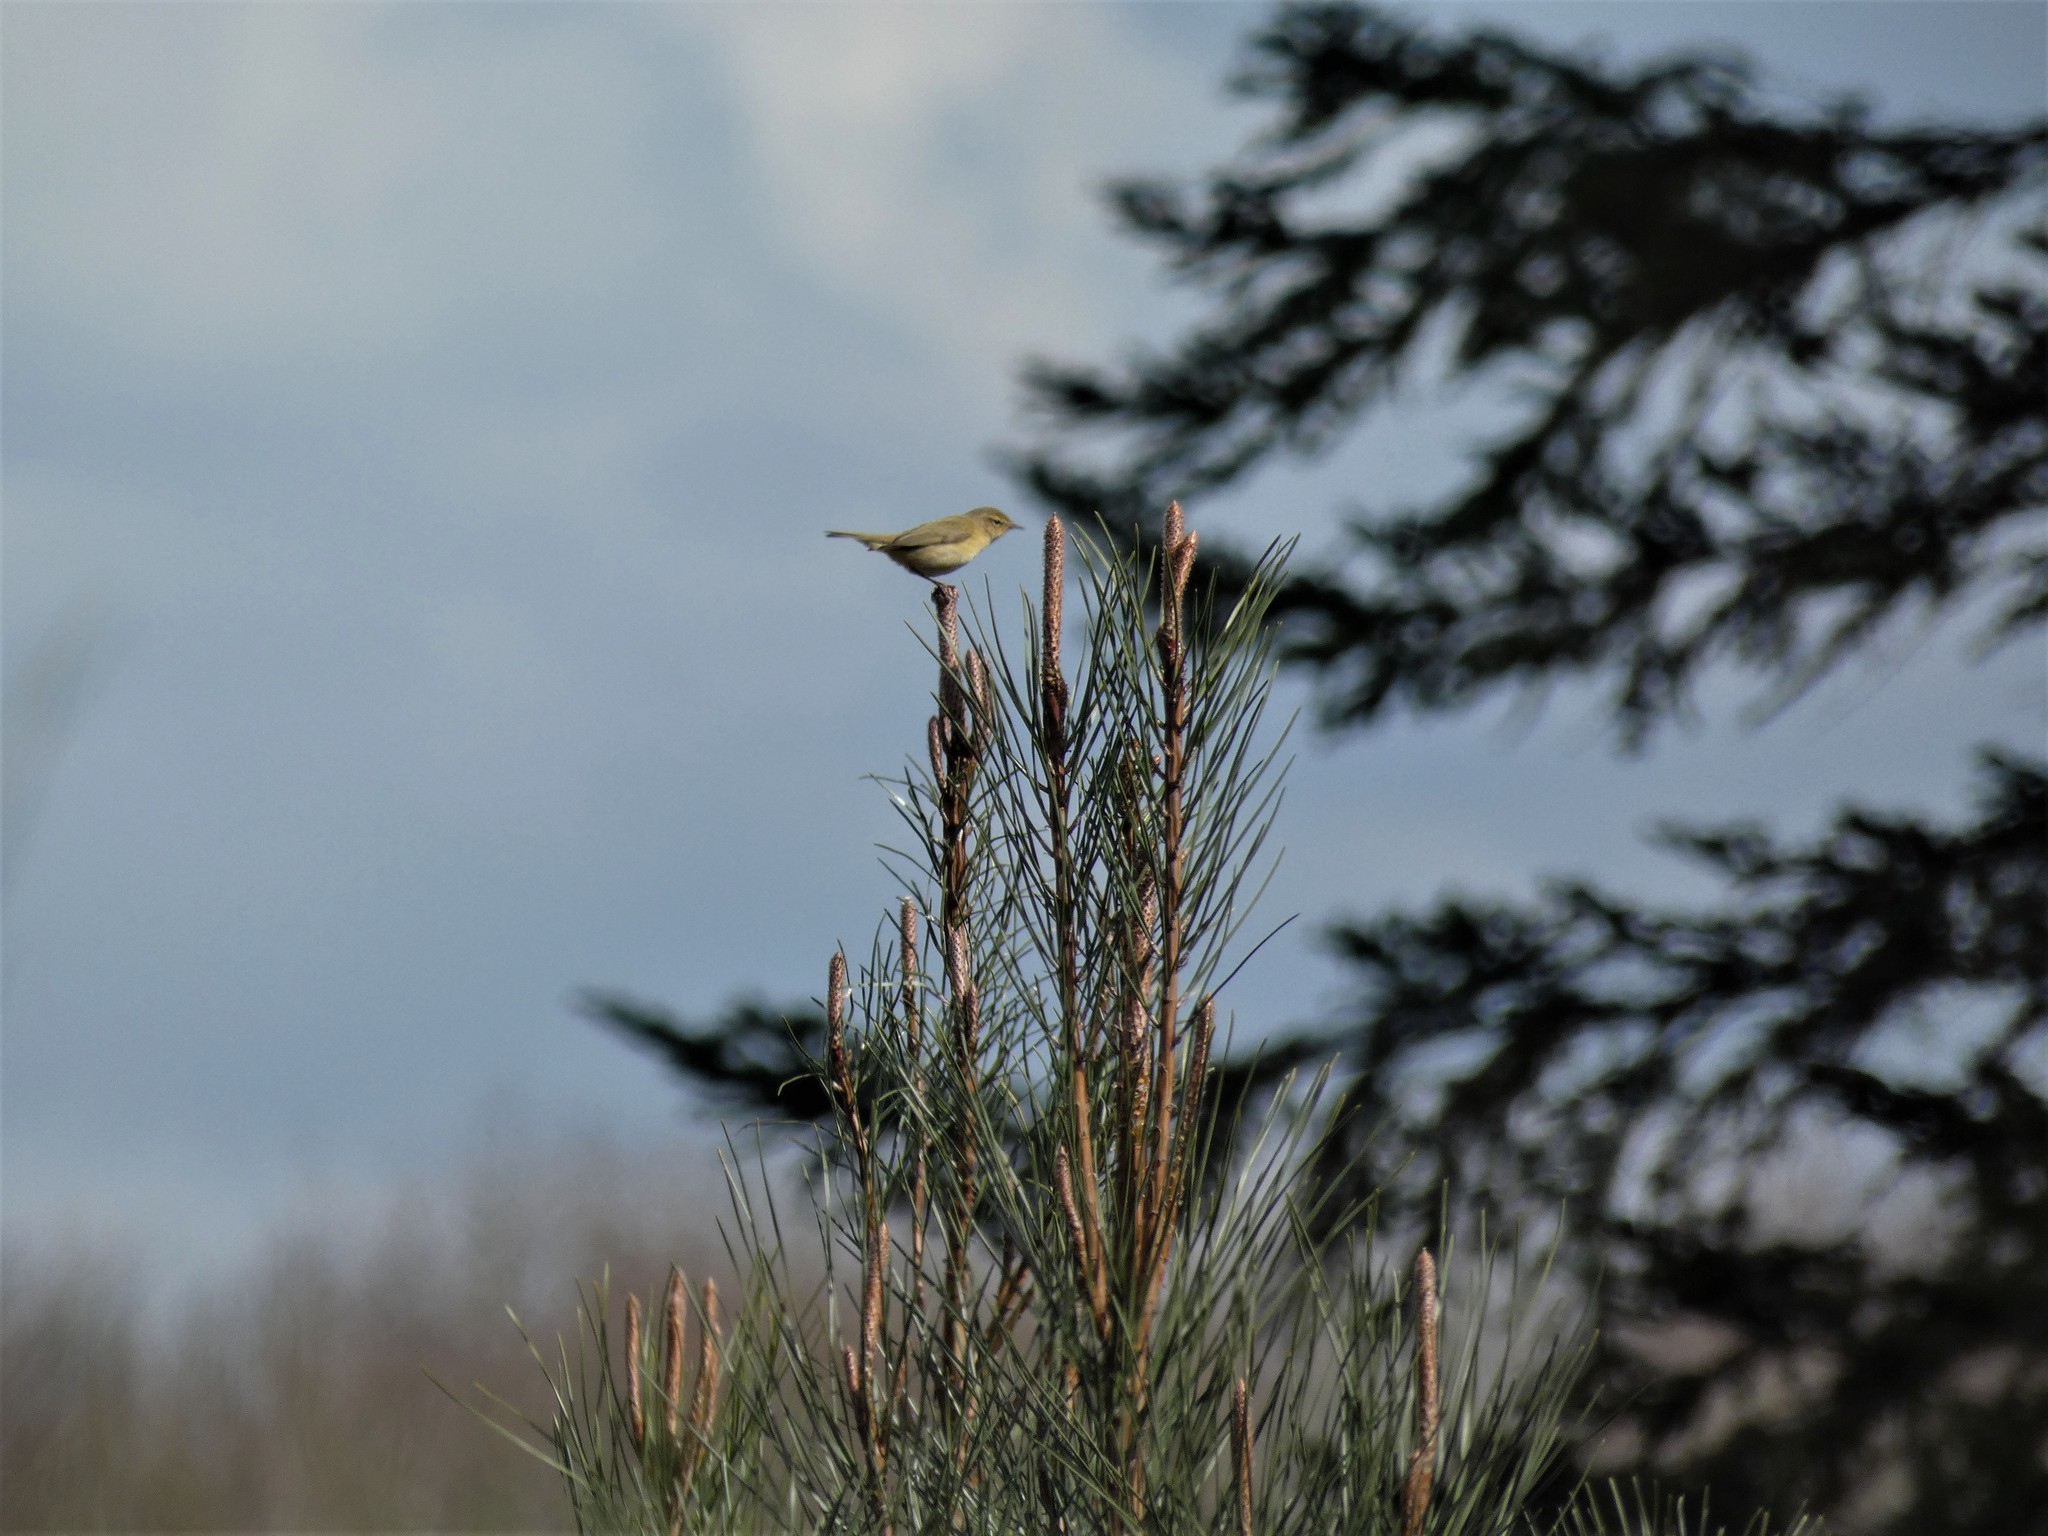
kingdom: Animalia
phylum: Chordata
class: Aves
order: Passeriformes
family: Phylloscopidae
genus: Phylloscopus
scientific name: Phylloscopus collybita
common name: Common chiffchaff
